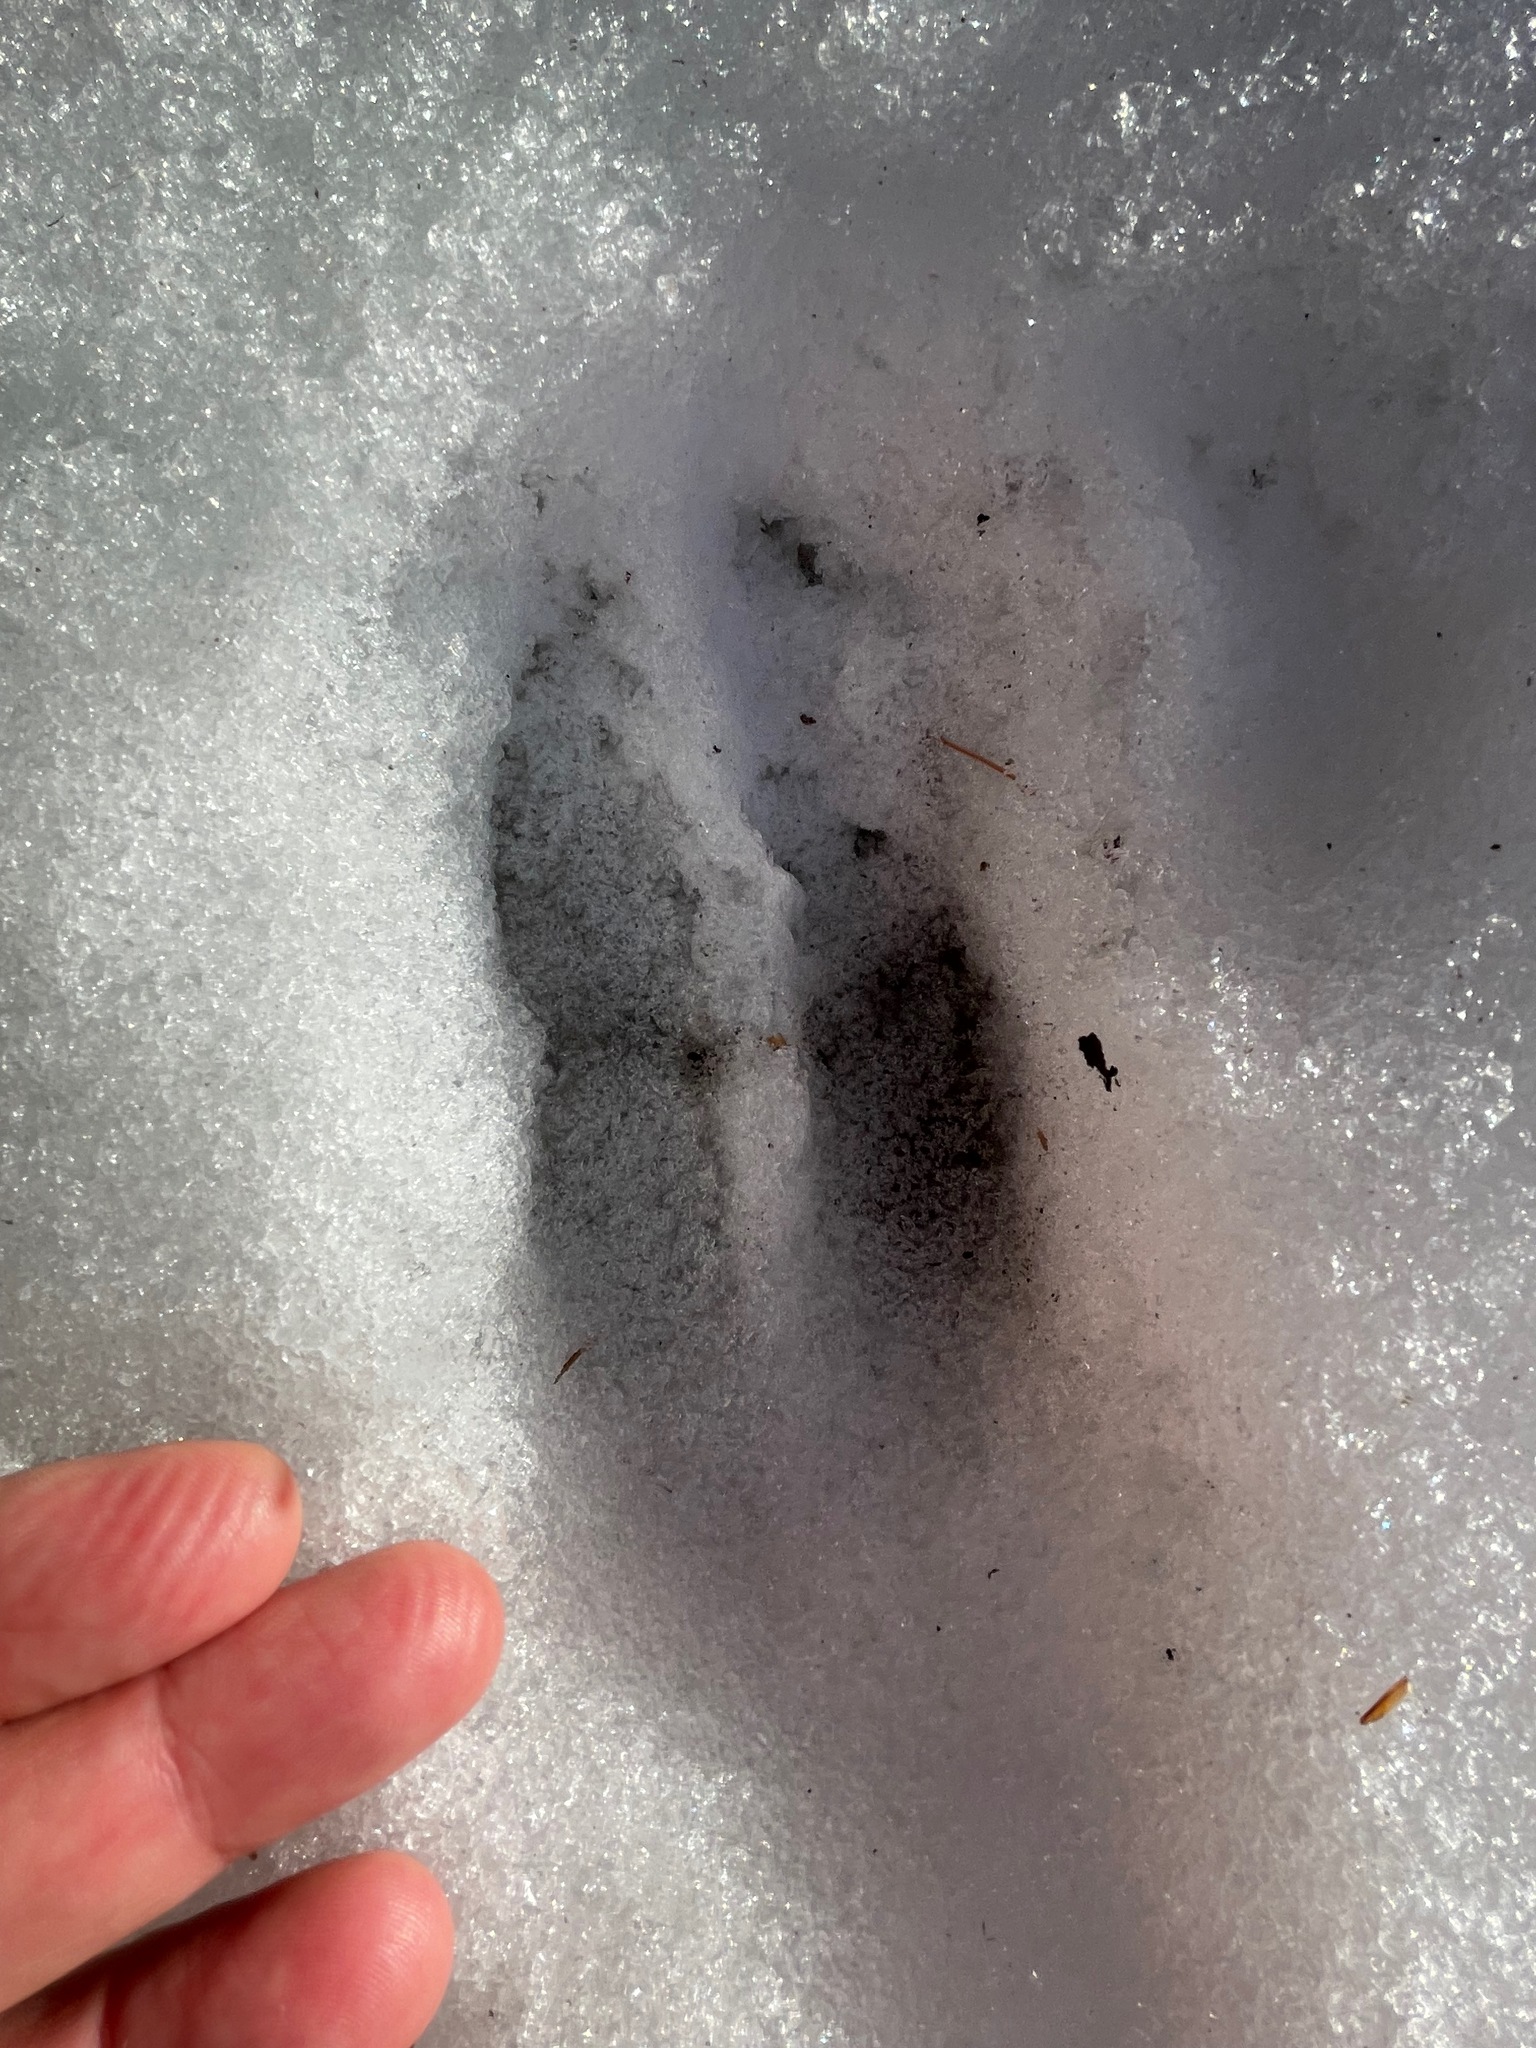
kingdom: Animalia
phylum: Chordata
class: Mammalia
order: Artiodactyla
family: Cervidae
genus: Odocoileus
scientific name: Odocoileus virginianus
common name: White-tailed deer
